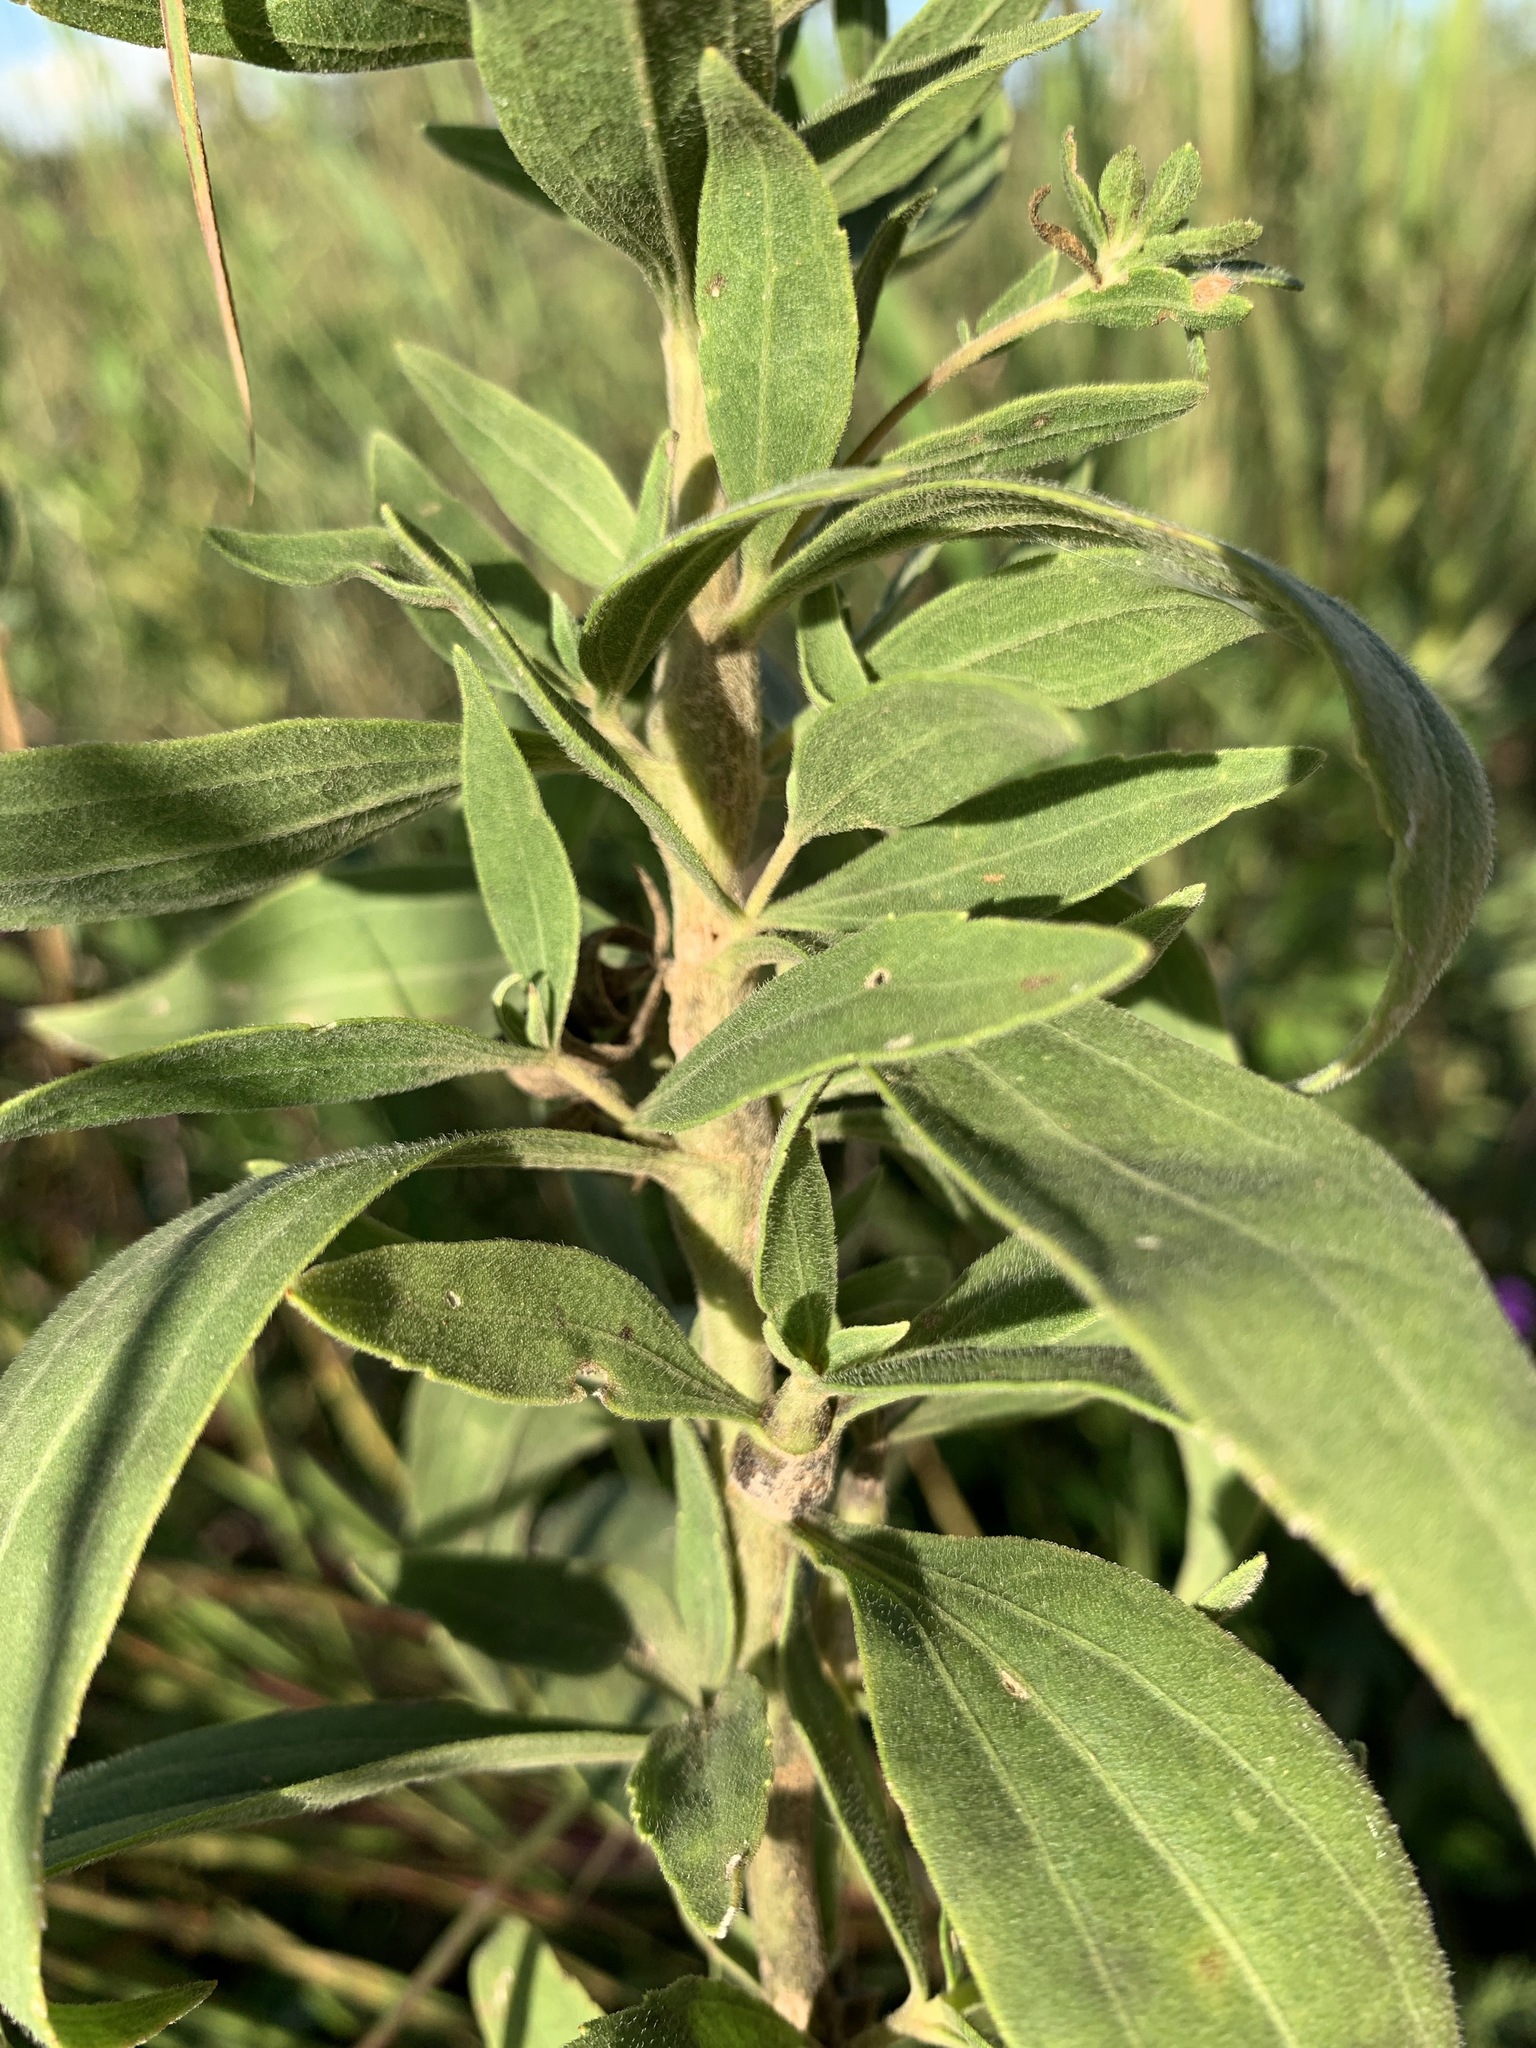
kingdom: Plantae
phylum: Tracheophyta
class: Magnoliopsida
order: Asterales
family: Asteraceae
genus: Eupatorium
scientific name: Eupatorium altissimum
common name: Tall thoroughwort
